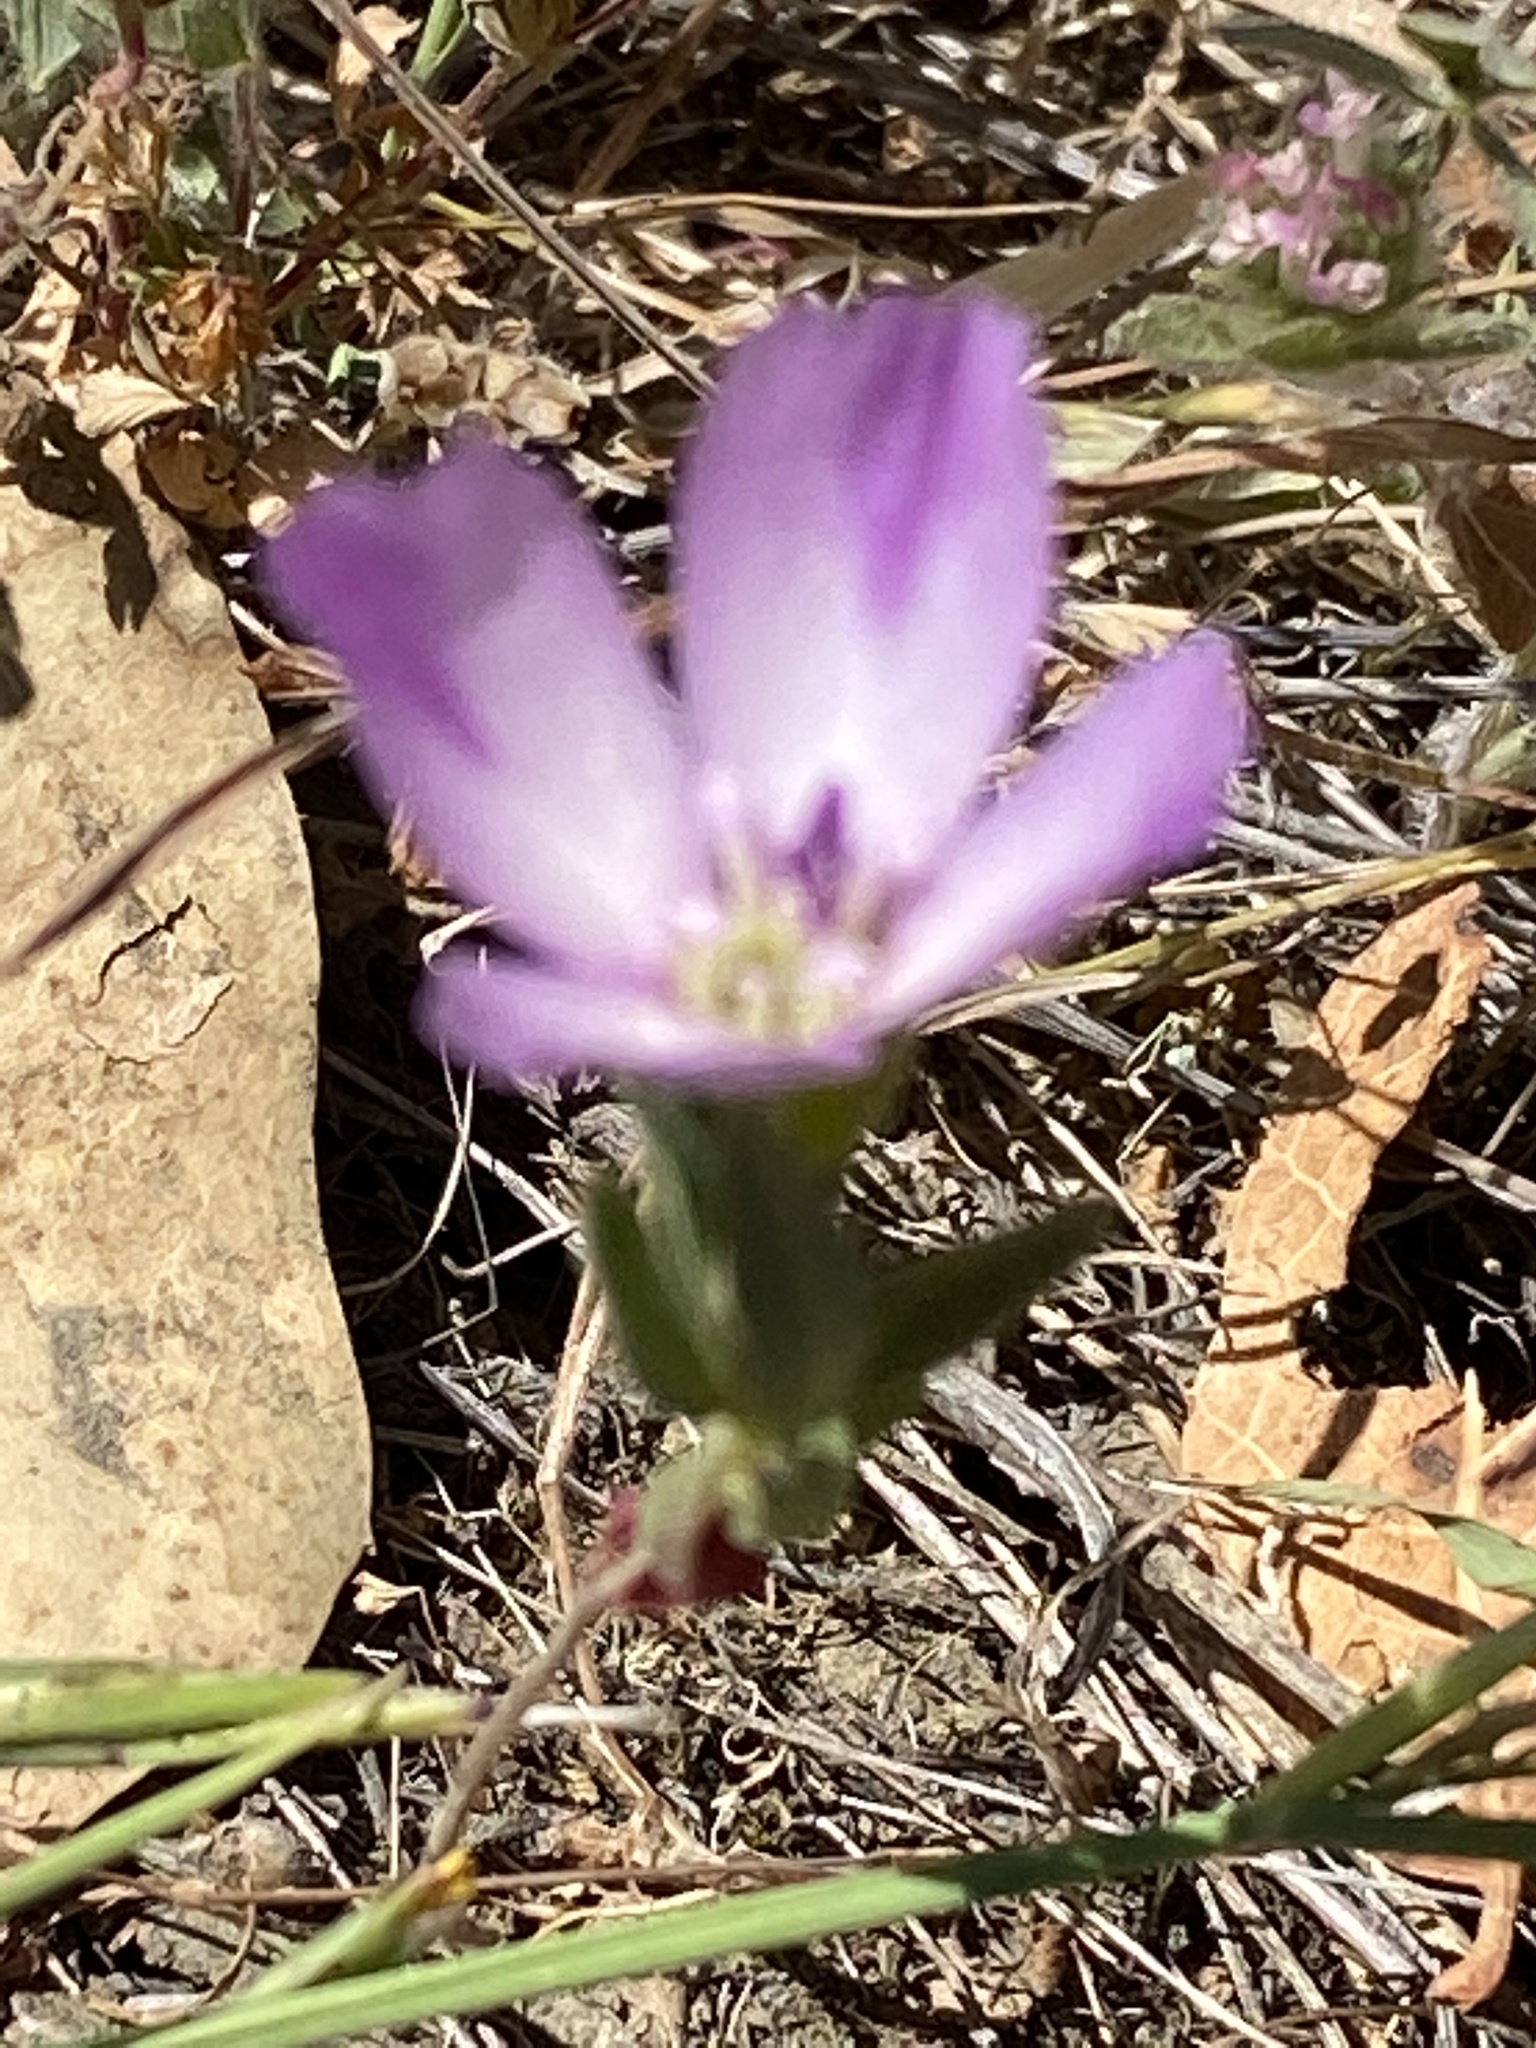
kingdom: Plantae
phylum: Tracheophyta
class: Magnoliopsida
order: Myrtales
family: Onagraceae
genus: Clarkia
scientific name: Clarkia purpurea
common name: Purple clarkia
